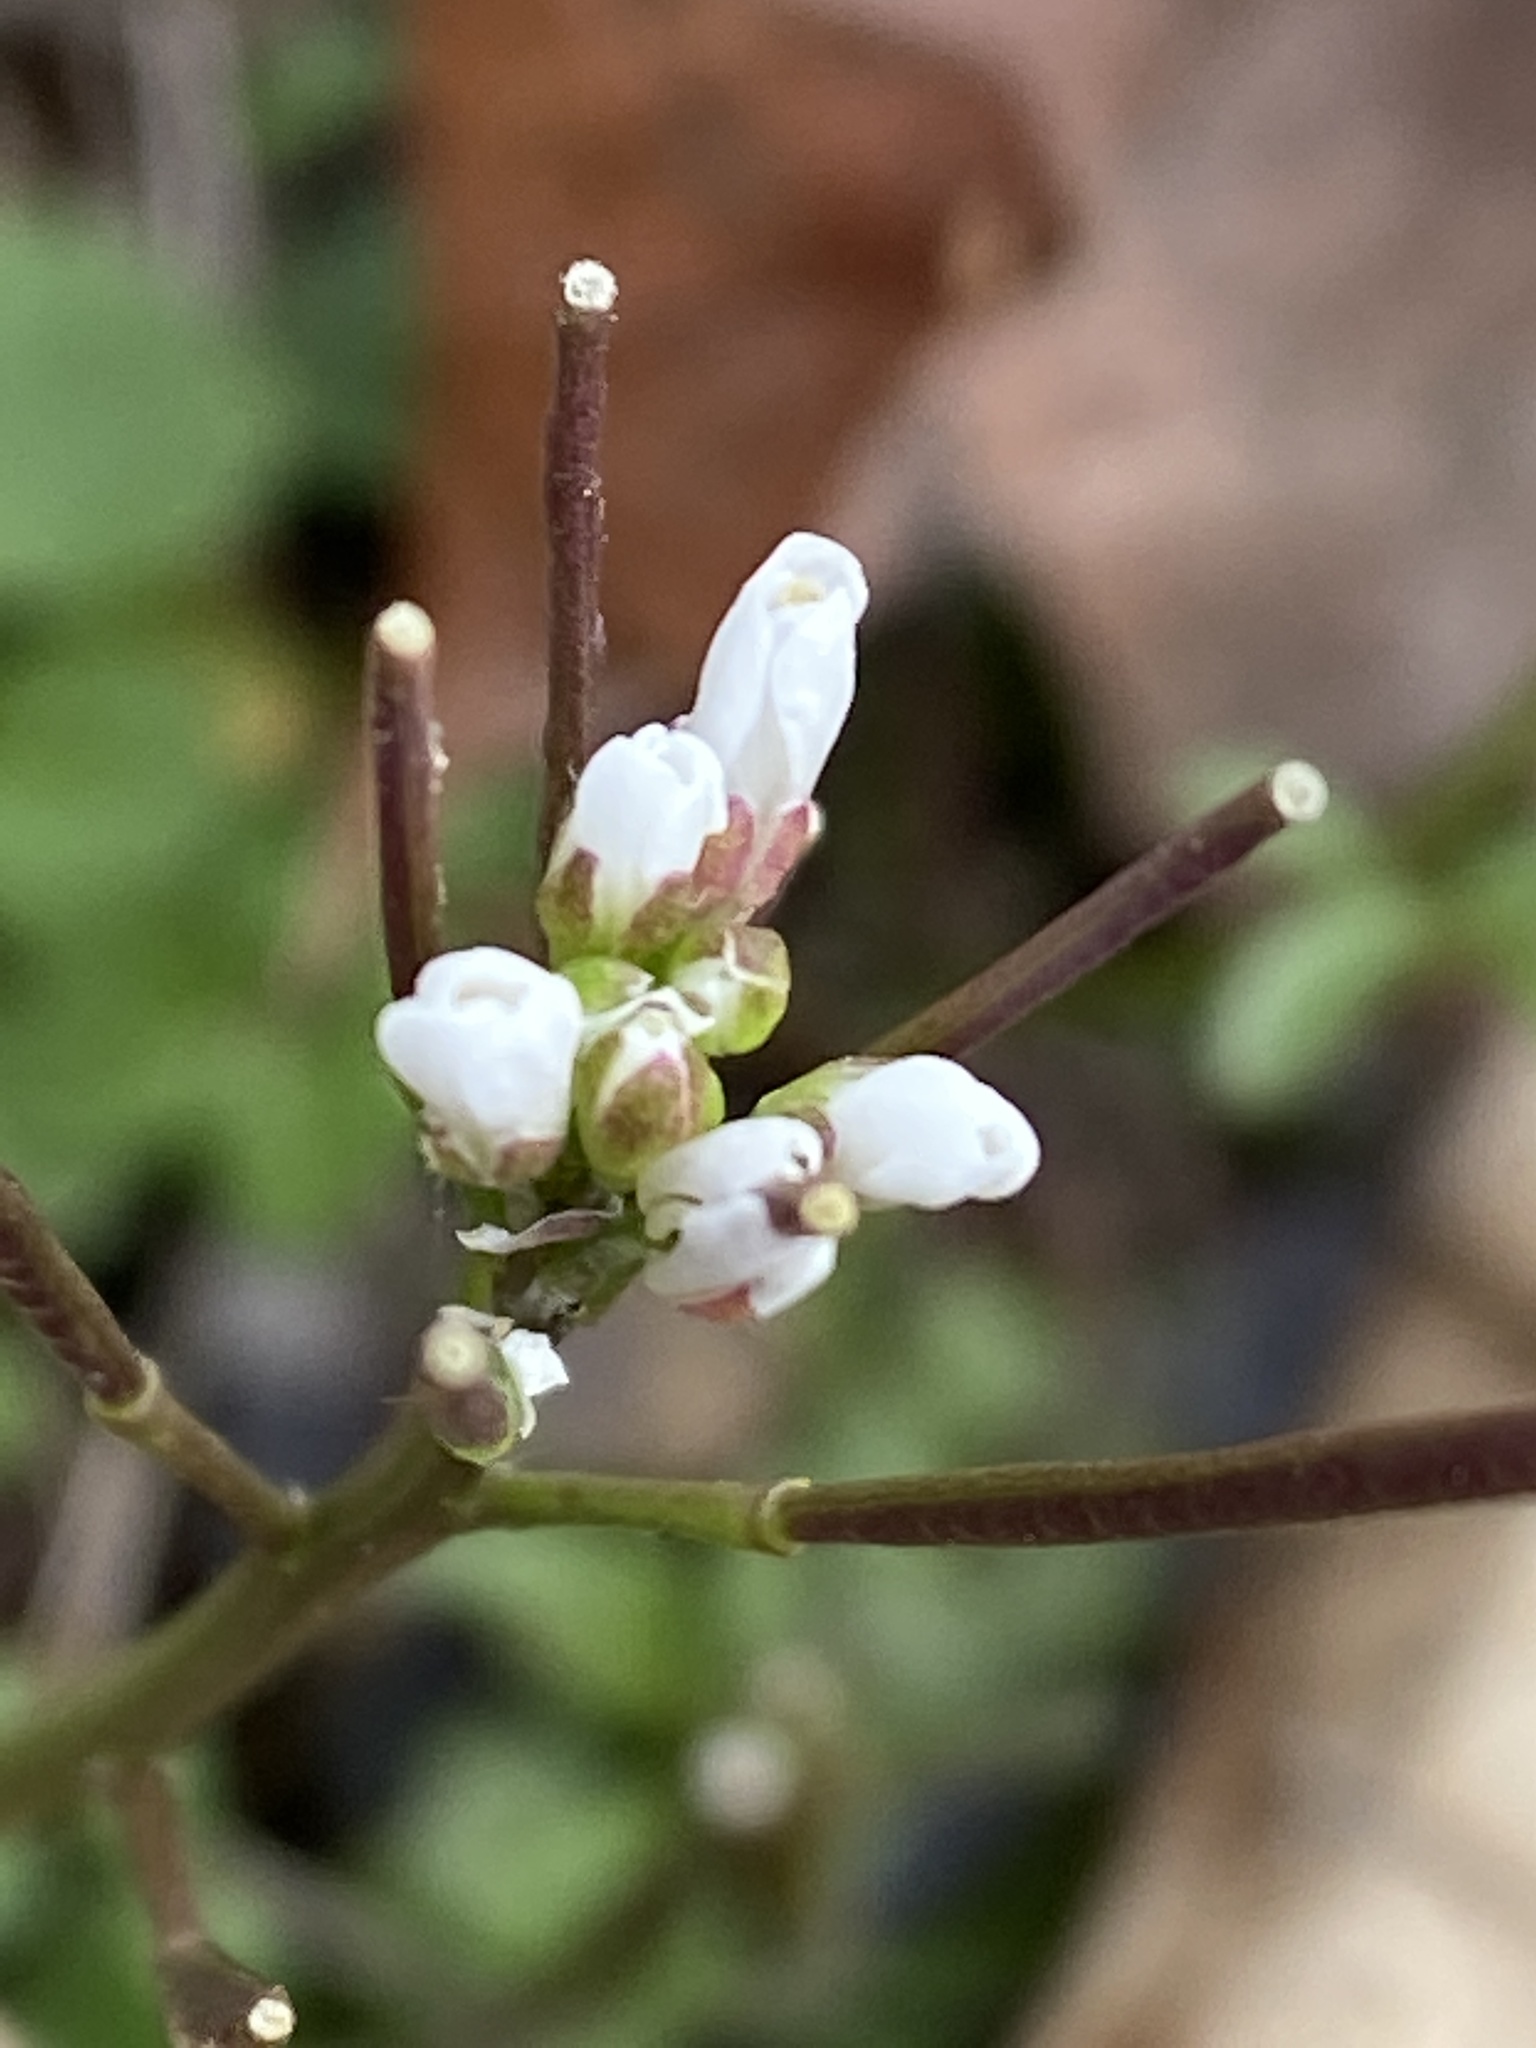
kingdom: Plantae
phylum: Tracheophyta
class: Magnoliopsida
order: Brassicales
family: Brassicaceae
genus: Cardamine
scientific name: Cardamine hirsuta
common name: Hairy bittercress
